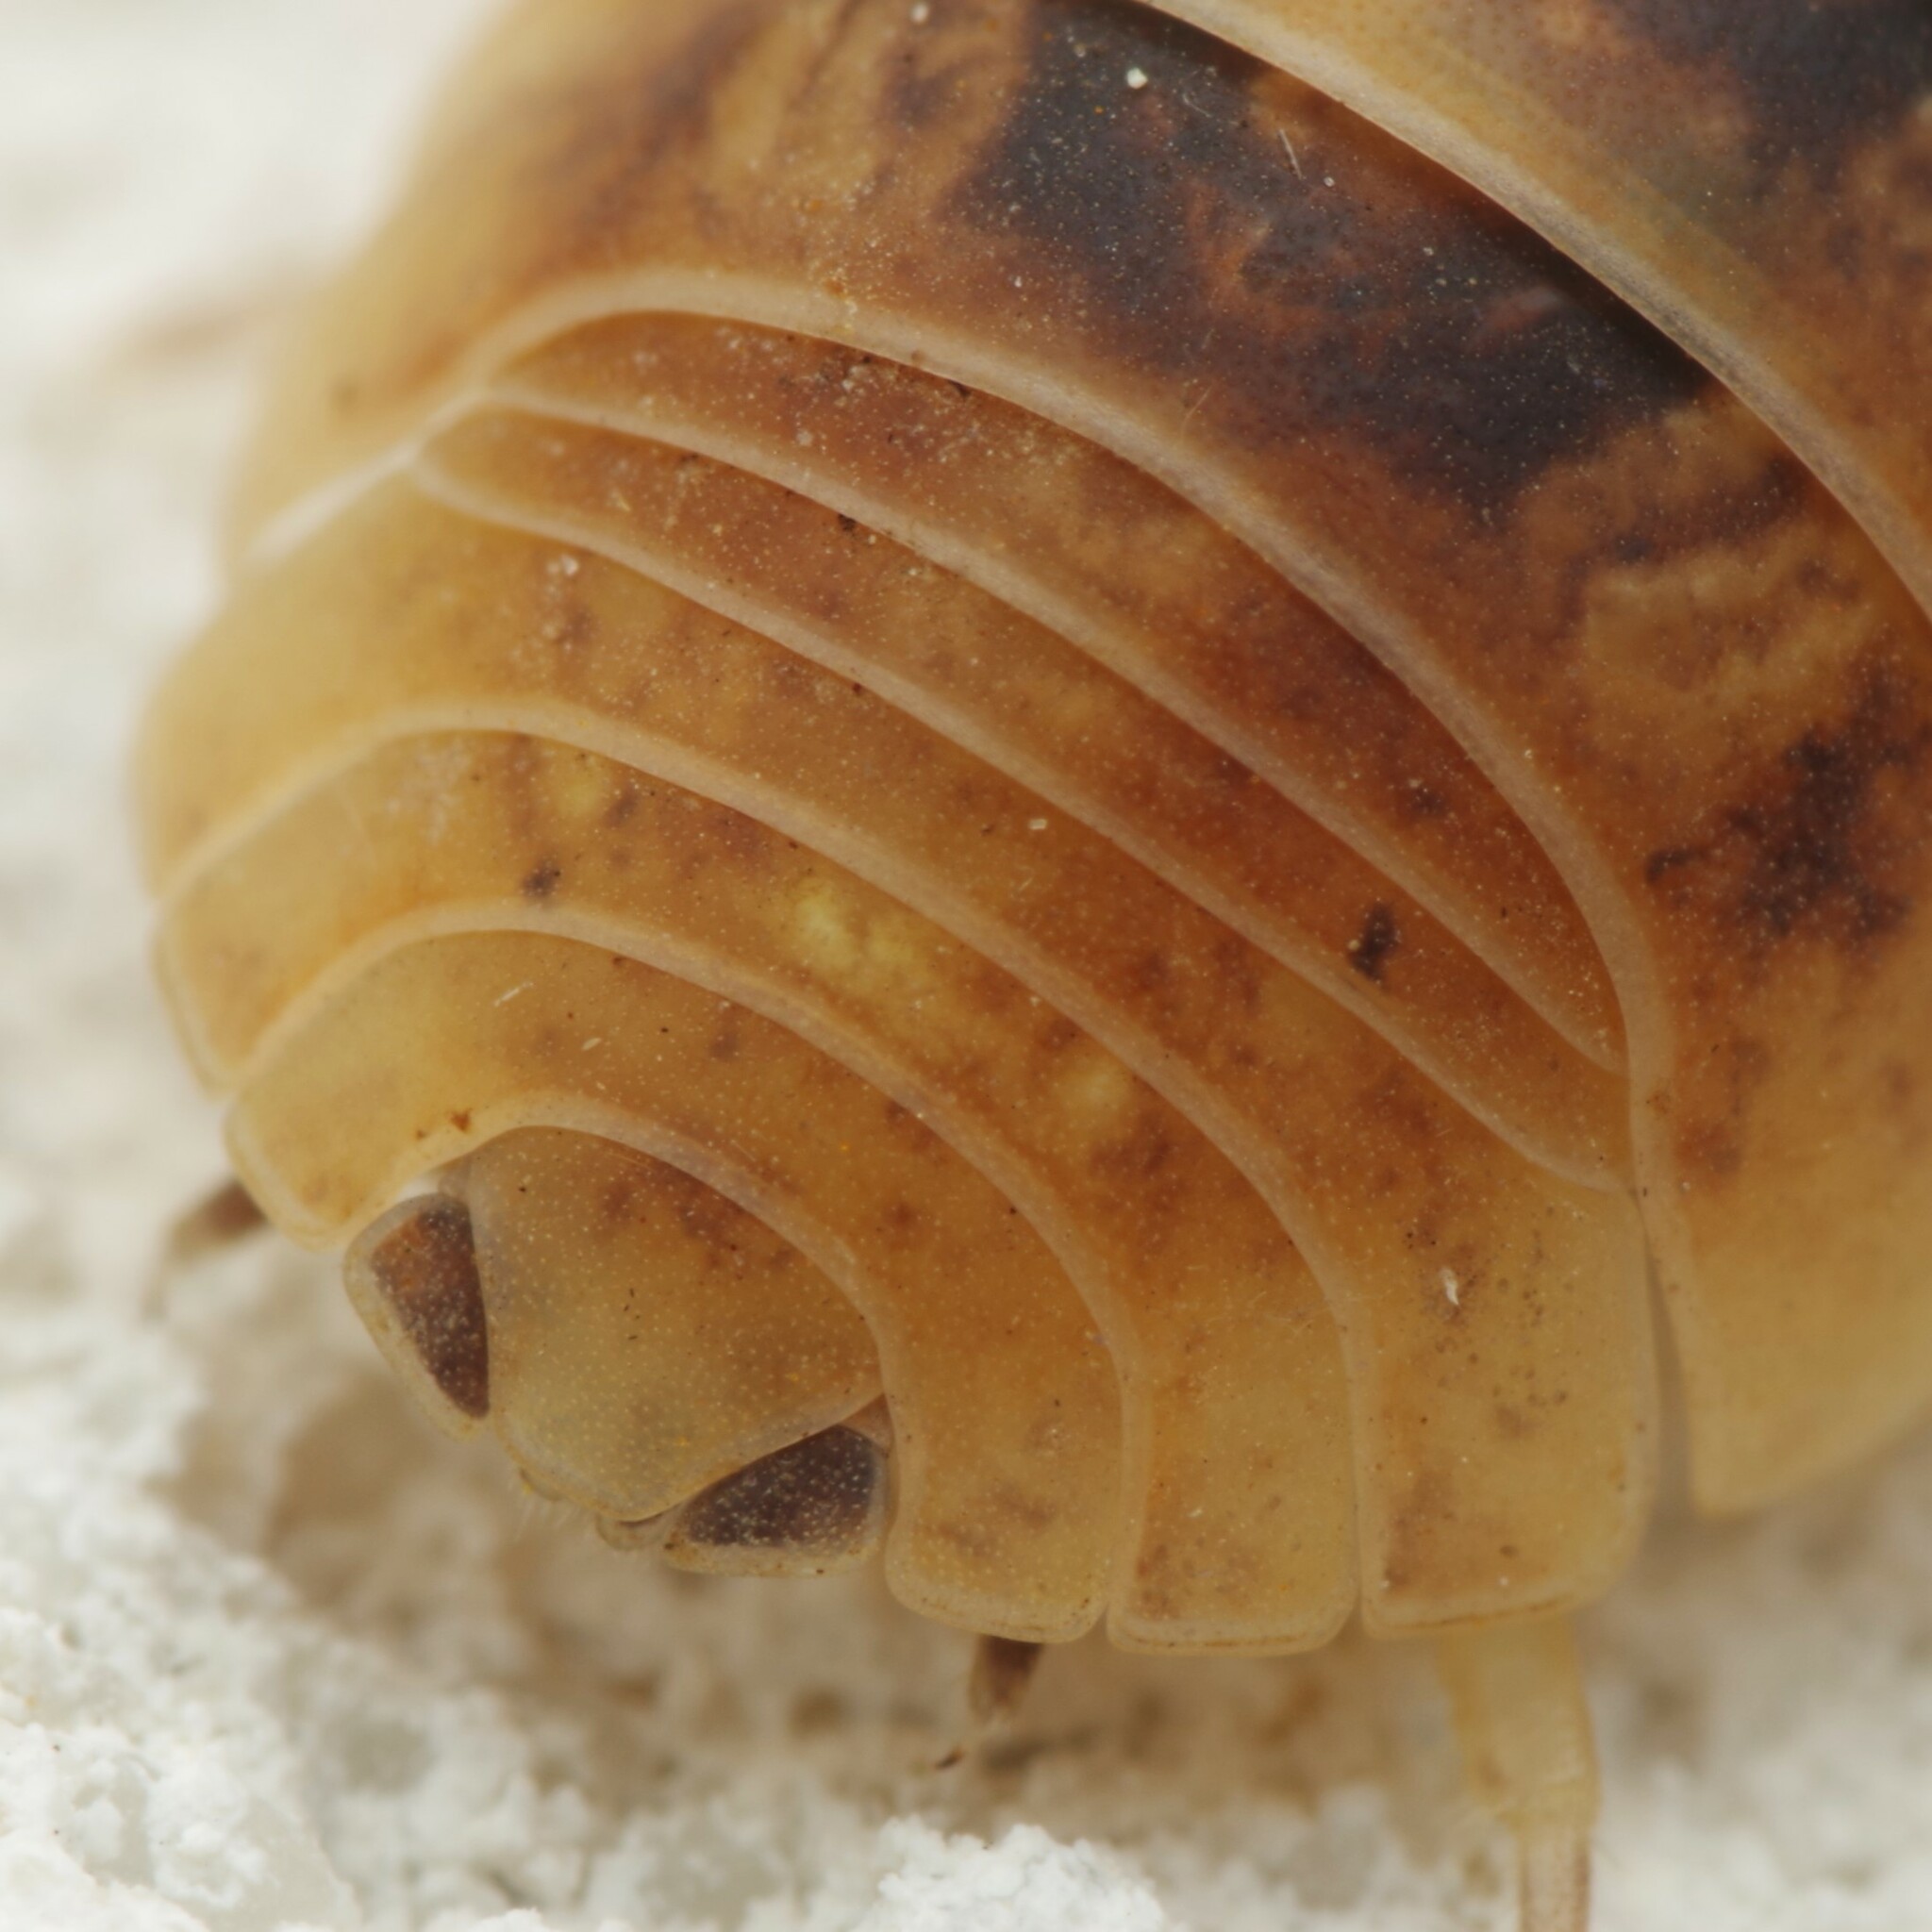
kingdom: Animalia
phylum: Arthropoda
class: Malacostraca
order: Isopoda
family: Armadillidiidae
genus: Armadillidium
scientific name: Armadillidium vulgare
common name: Common pill woodlouse
